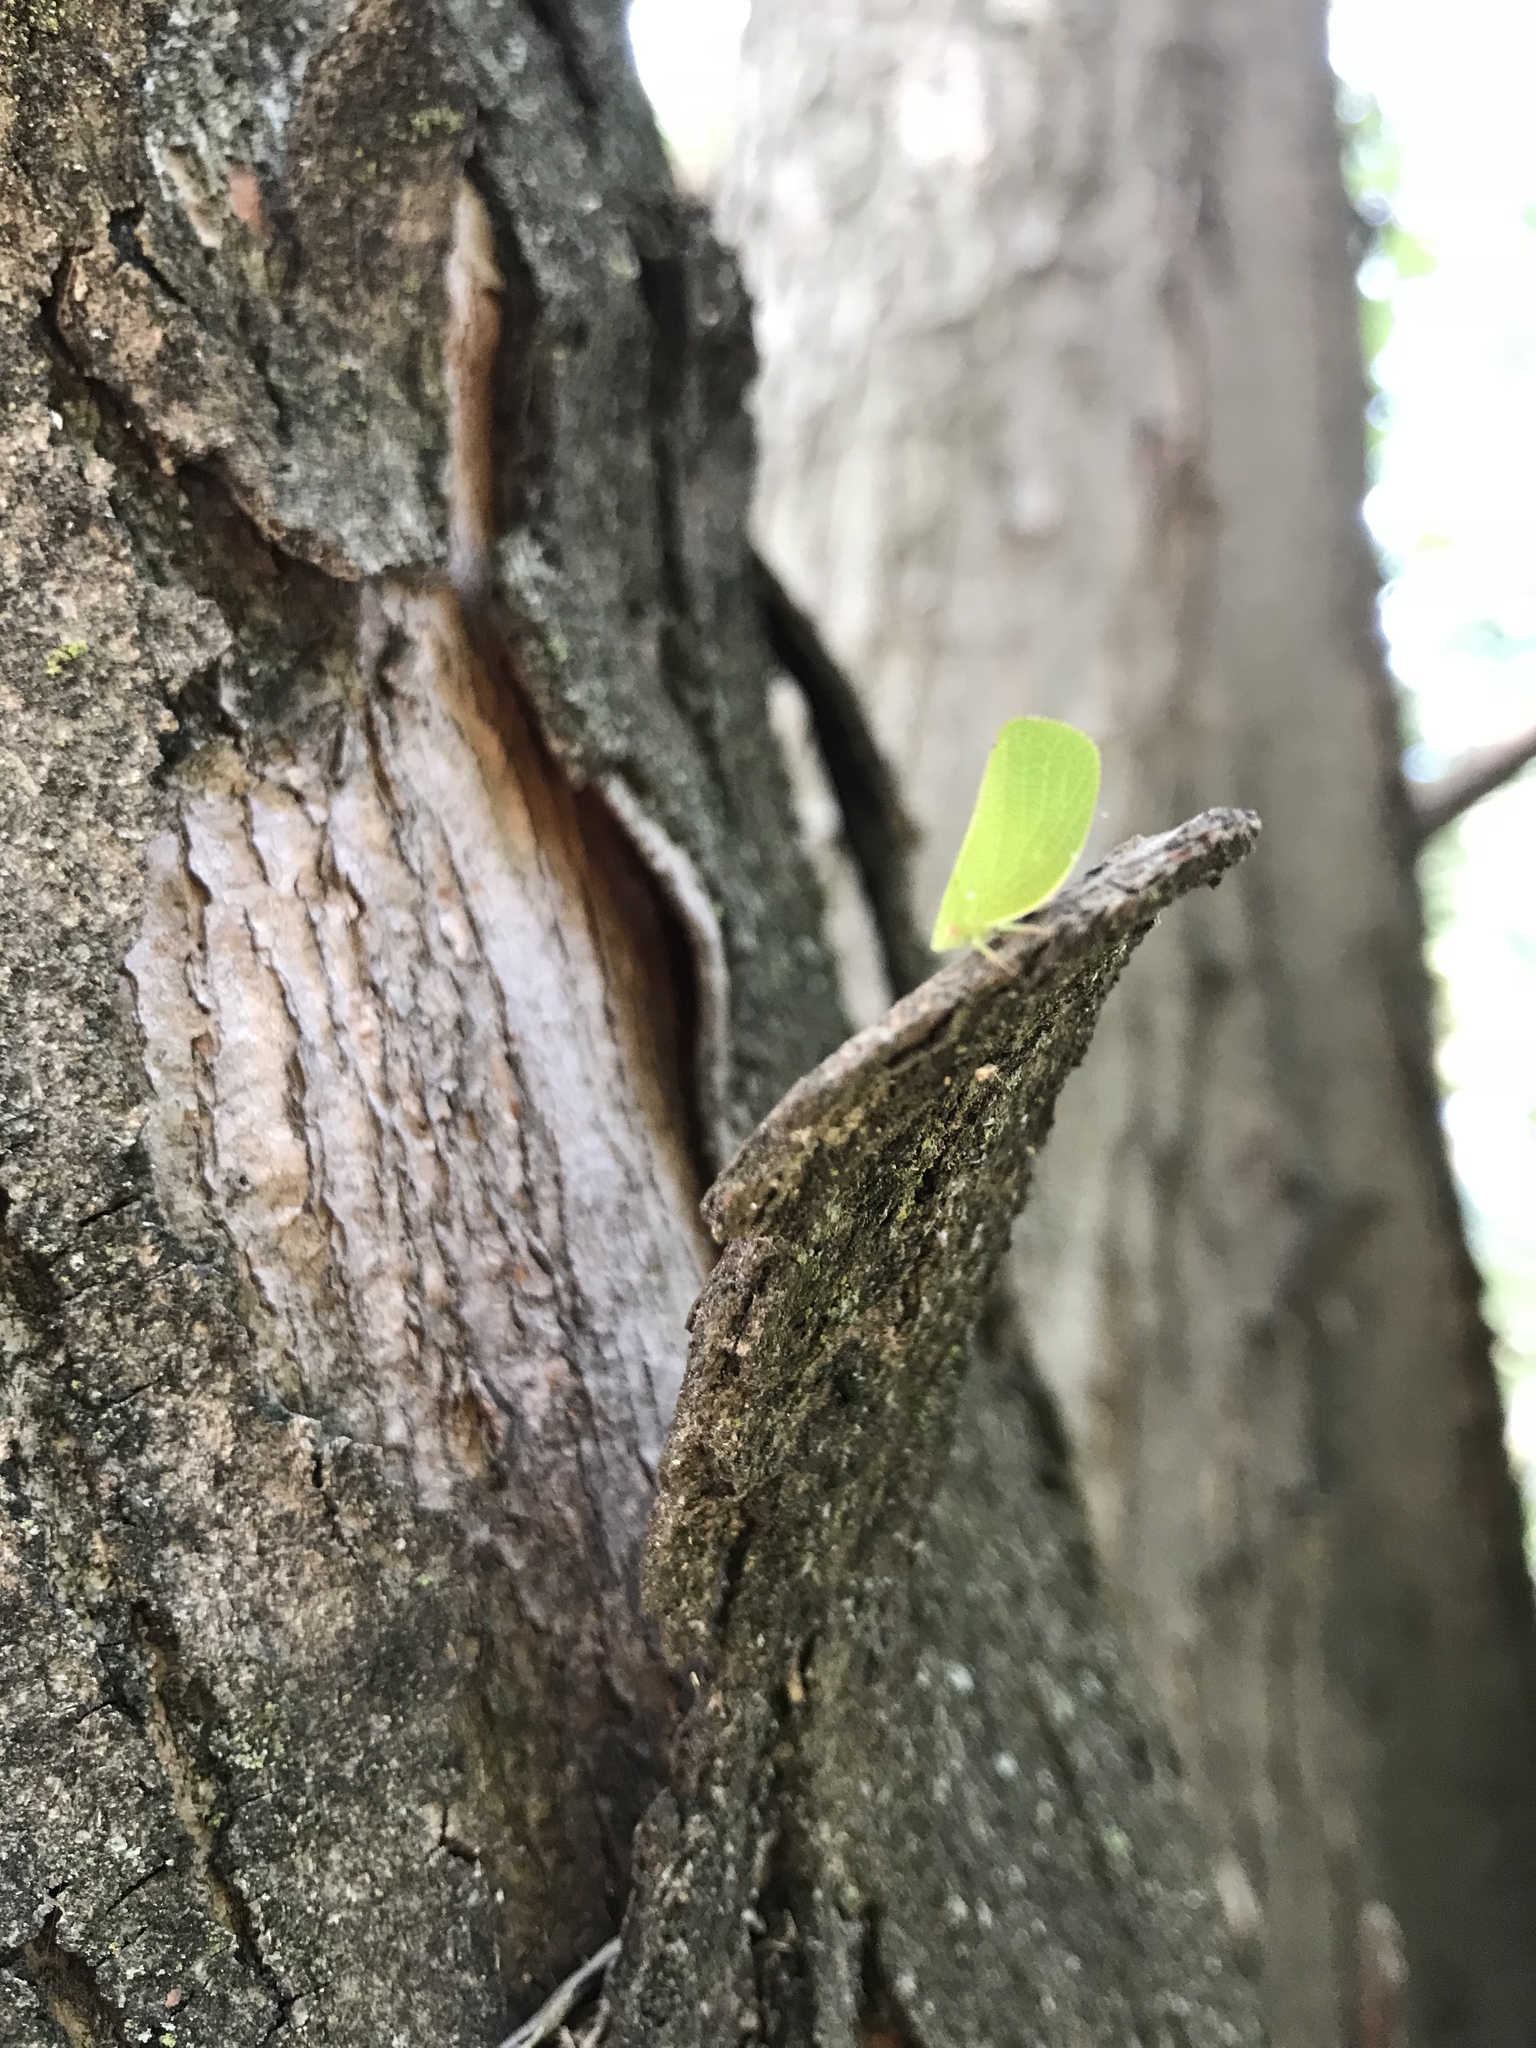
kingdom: Animalia
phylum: Arthropoda
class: Insecta
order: Hemiptera
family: Acanaloniidae
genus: Acanalonia
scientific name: Acanalonia conica
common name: Green cone-headed planthopper
